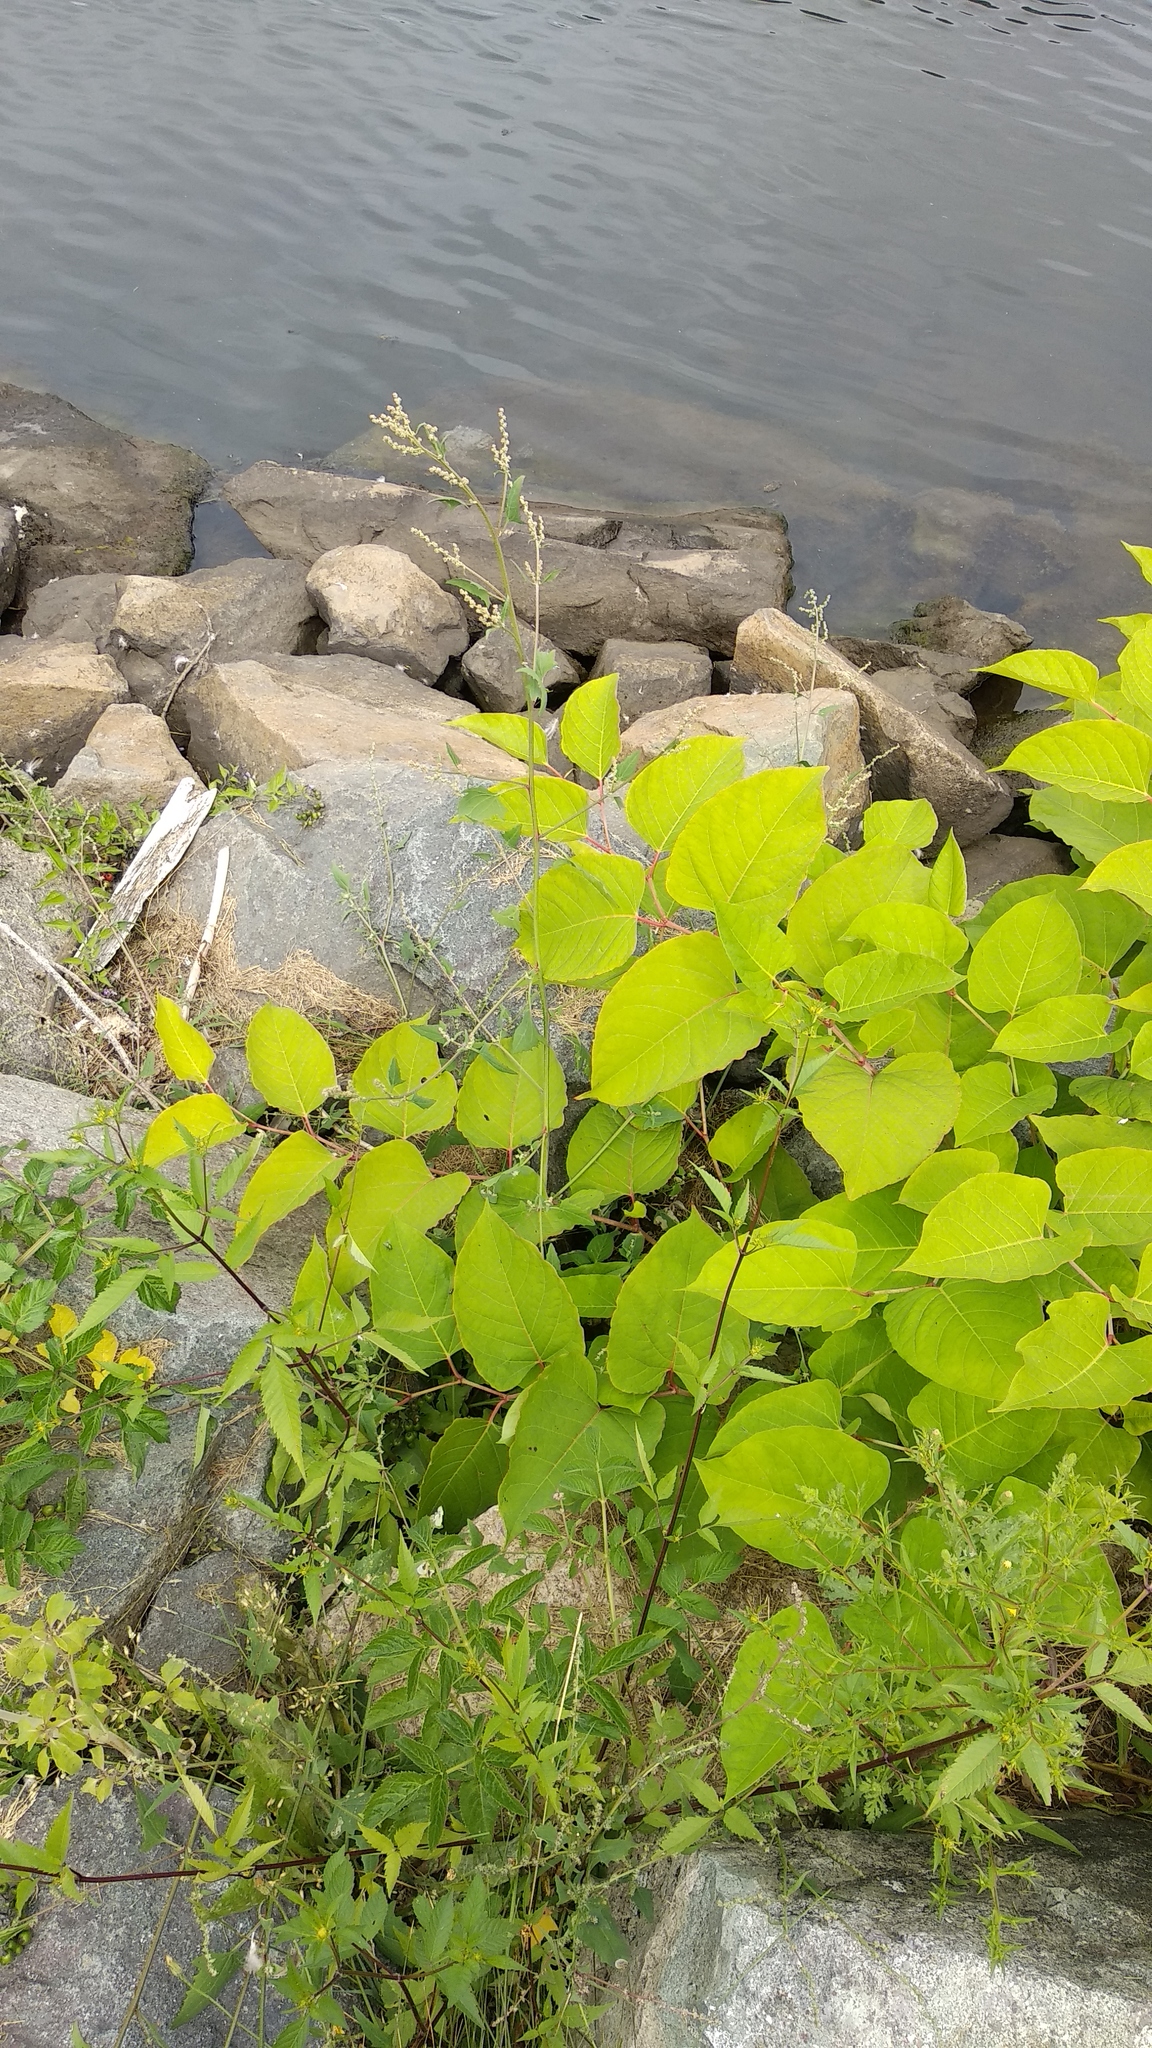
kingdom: Plantae
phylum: Tracheophyta
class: Magnoliopsida
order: Caryophyllales
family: Polygonaceae
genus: Reynoutria
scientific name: Reynoutria japonica
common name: Japanese knotweed
